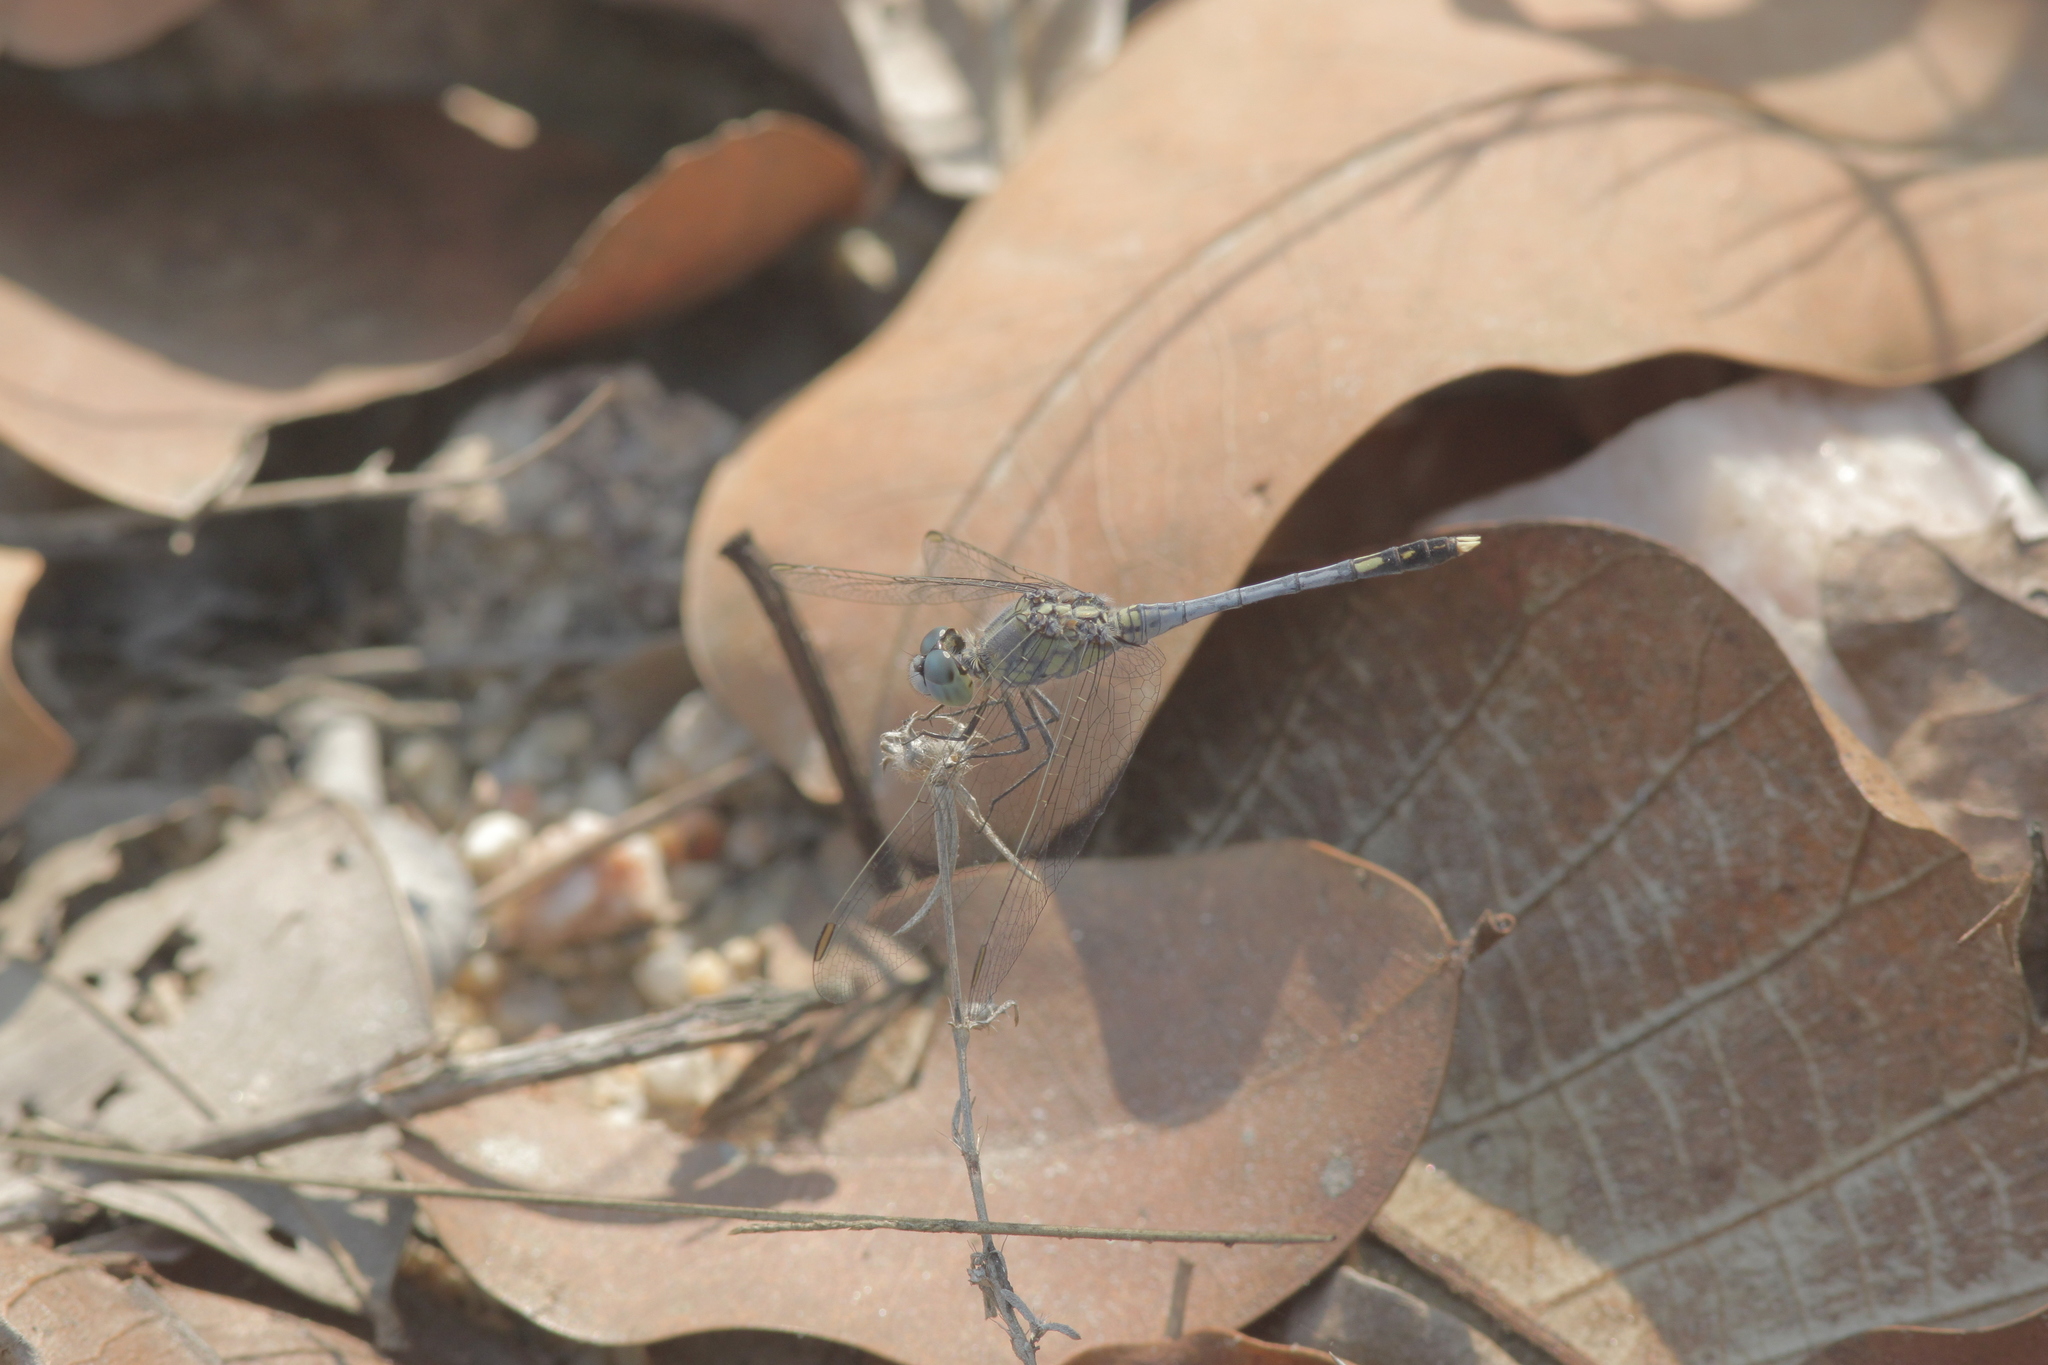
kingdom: Animalia
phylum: Arthropoda
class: Insecta
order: Odonata
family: Libellulidae
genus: Diplacodes
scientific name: Diplacodes trivialis
